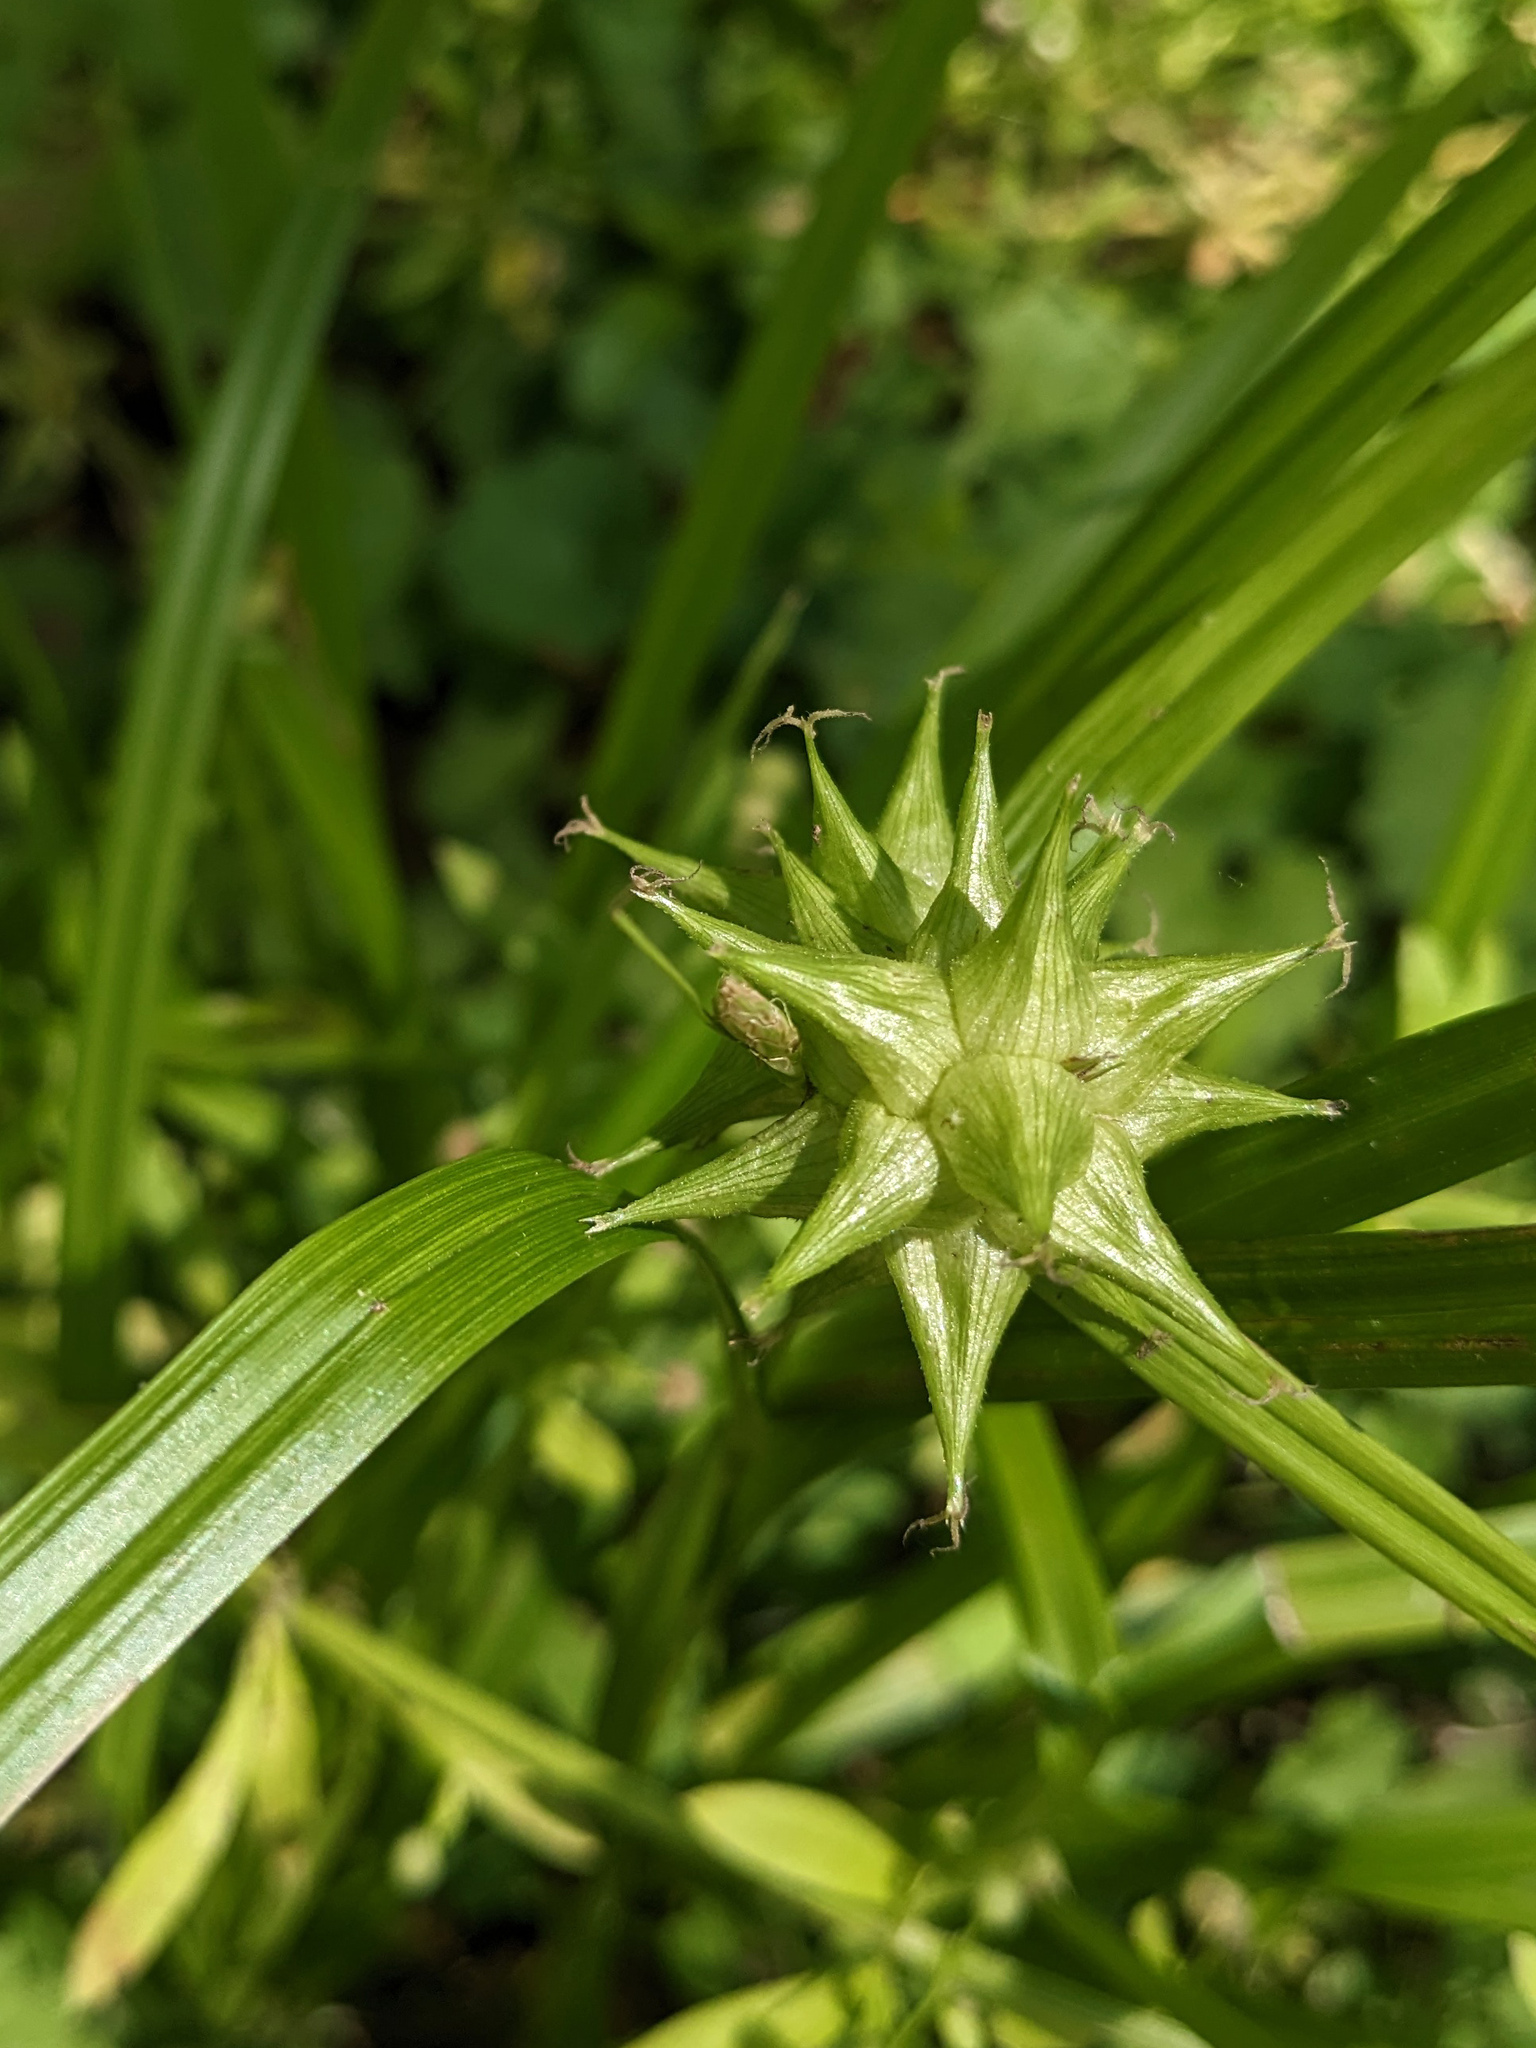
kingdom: Plantae
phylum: Tracheophyta
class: Liliopsida
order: Poales
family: Cyperaceae
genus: Carex
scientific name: Carex grayi
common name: Asa gray's sedge
